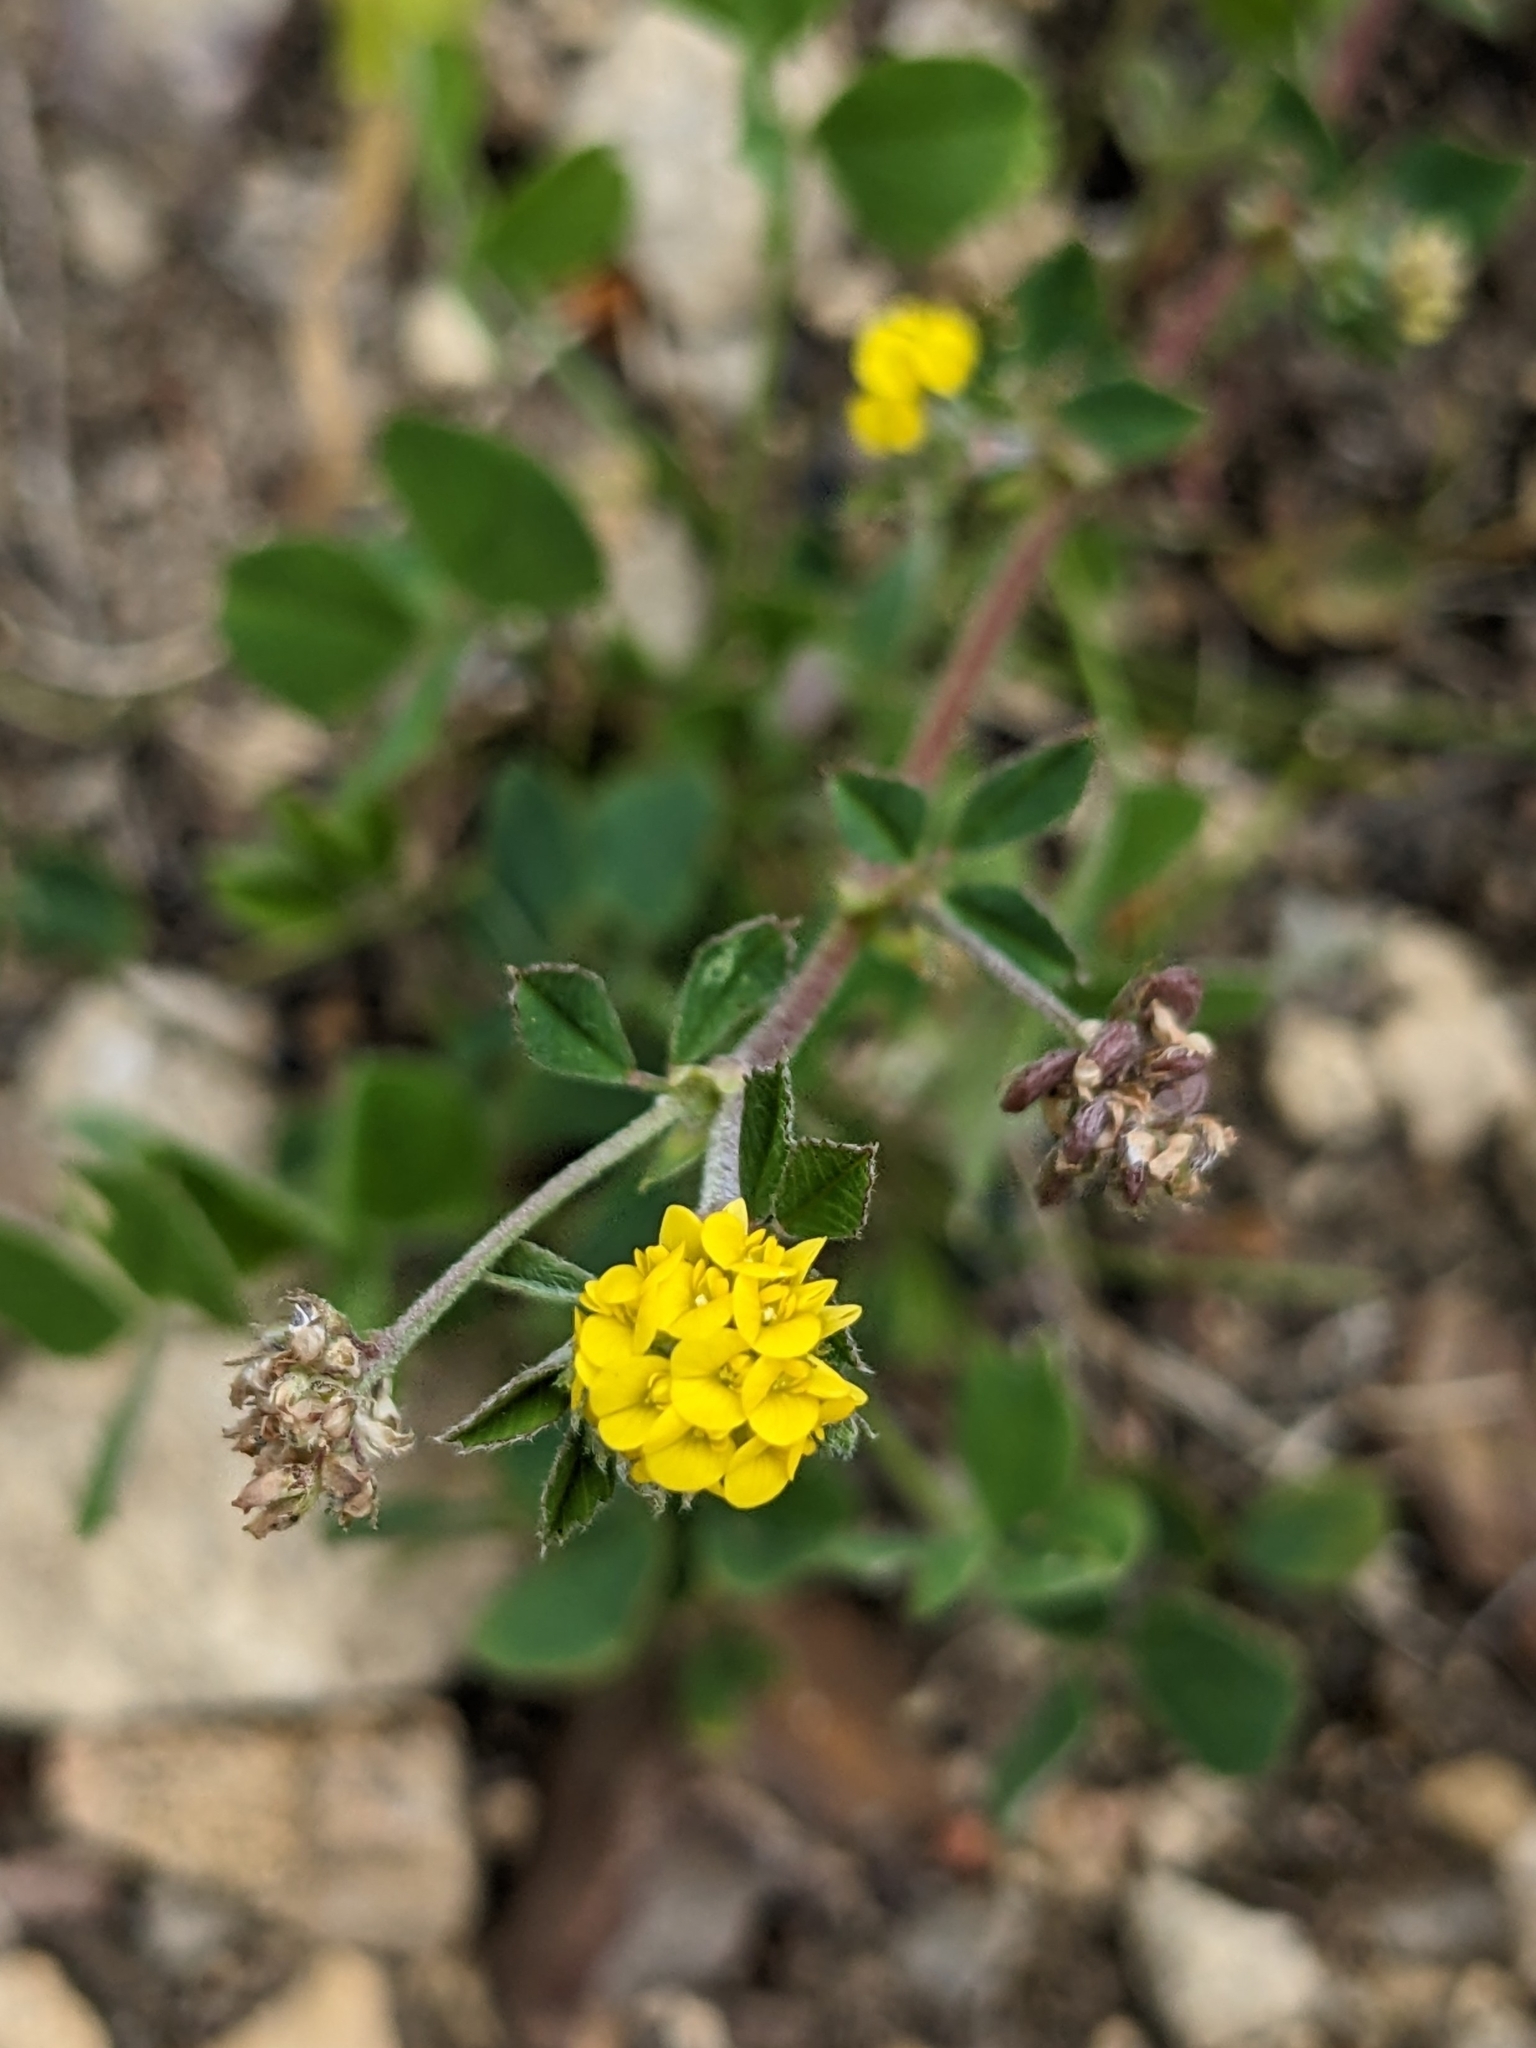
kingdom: Plantae
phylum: Tracheophyta
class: Magnoliopsida
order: Fabales
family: Fabaceae
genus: Medicago
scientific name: Medicago lupulina
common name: Black medick
